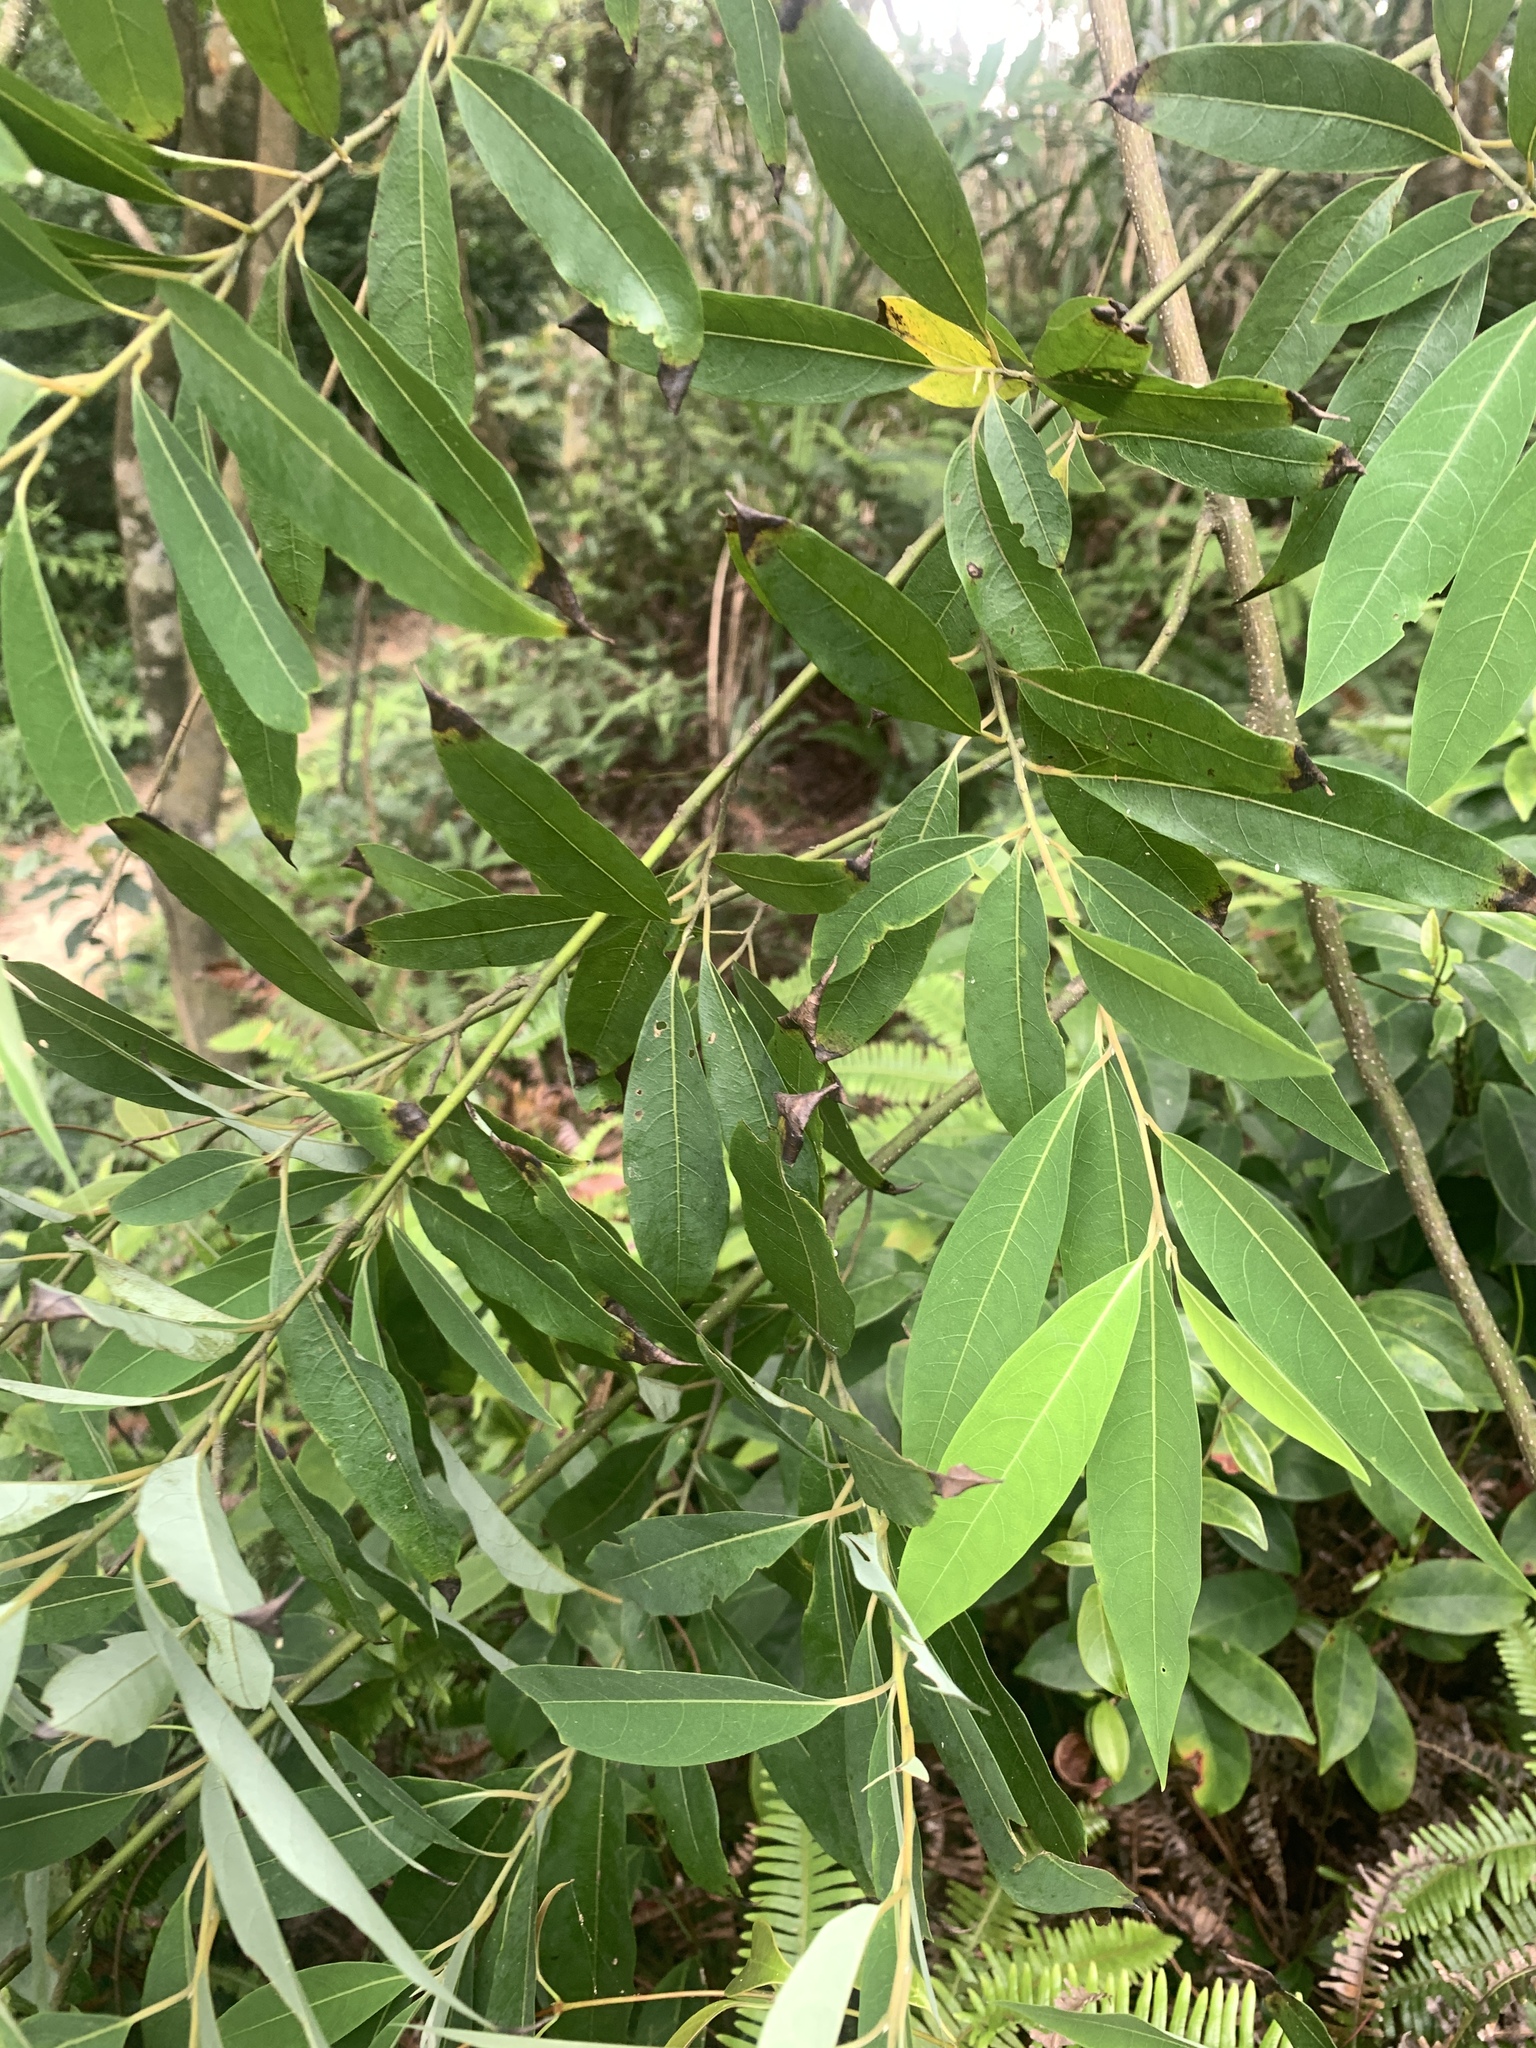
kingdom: Plantae
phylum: Tracheophyta
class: Magnoliopsida
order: Laurales
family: Lauraceae
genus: Litsea
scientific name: Litsea cubeba
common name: Mountain-pepper
